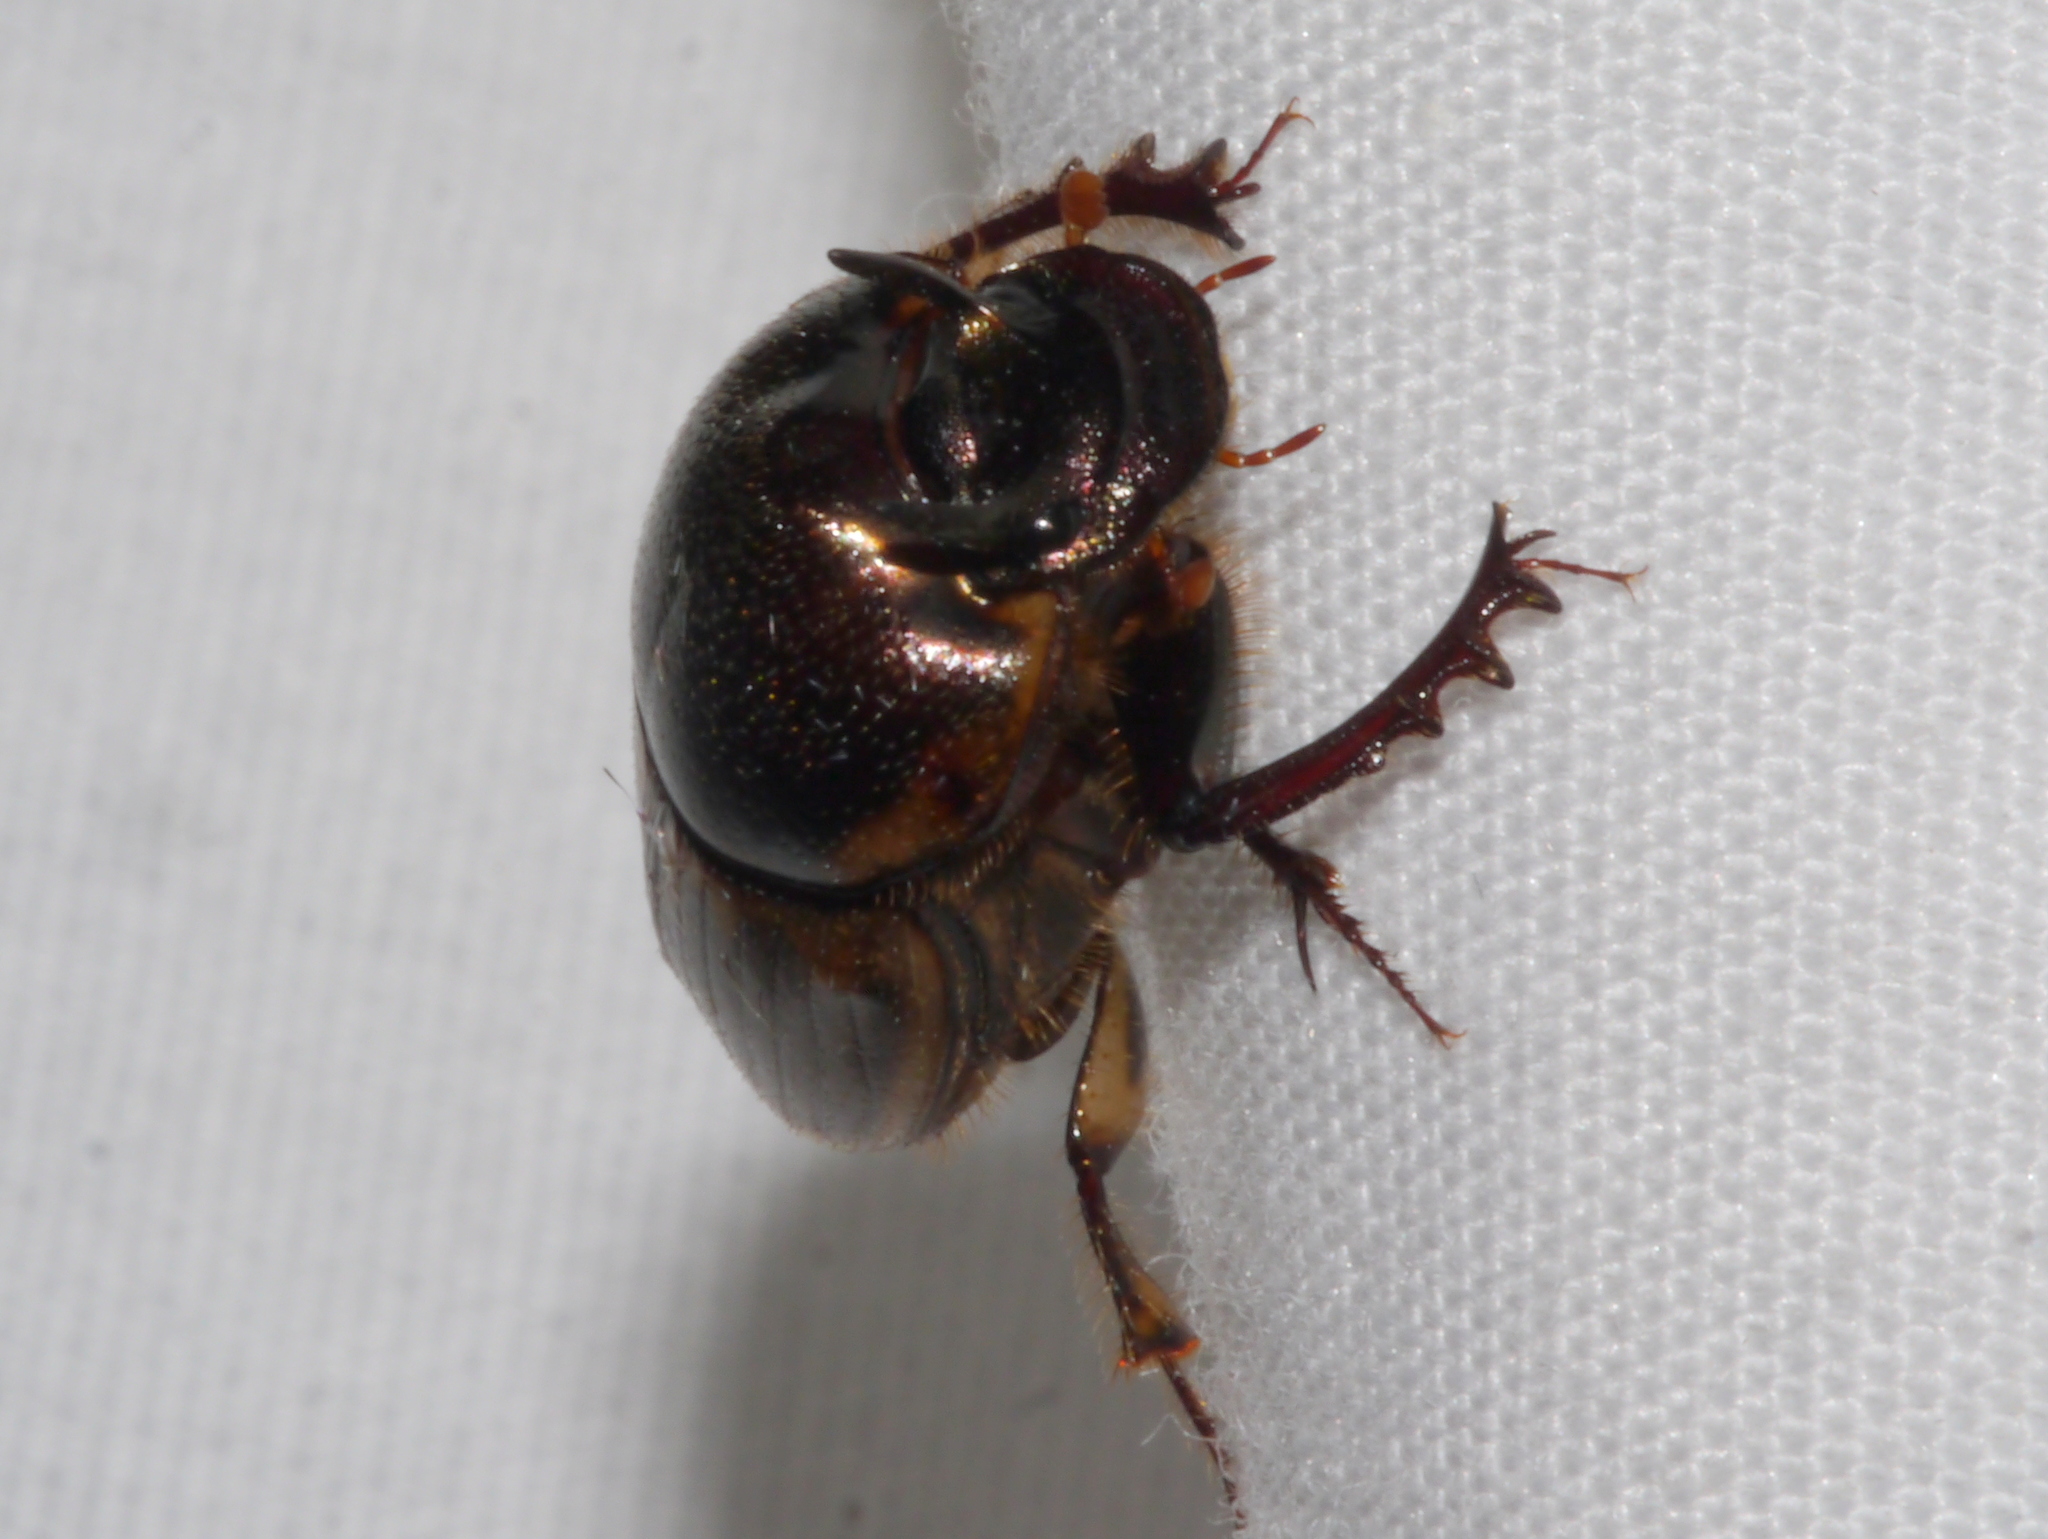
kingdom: Animalia
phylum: Arthropoda
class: Insecta
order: Coleoptera
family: Scarabaeidae
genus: Digitonthophagus
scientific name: Digitonthophagus gazella
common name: Brown dung beetle
